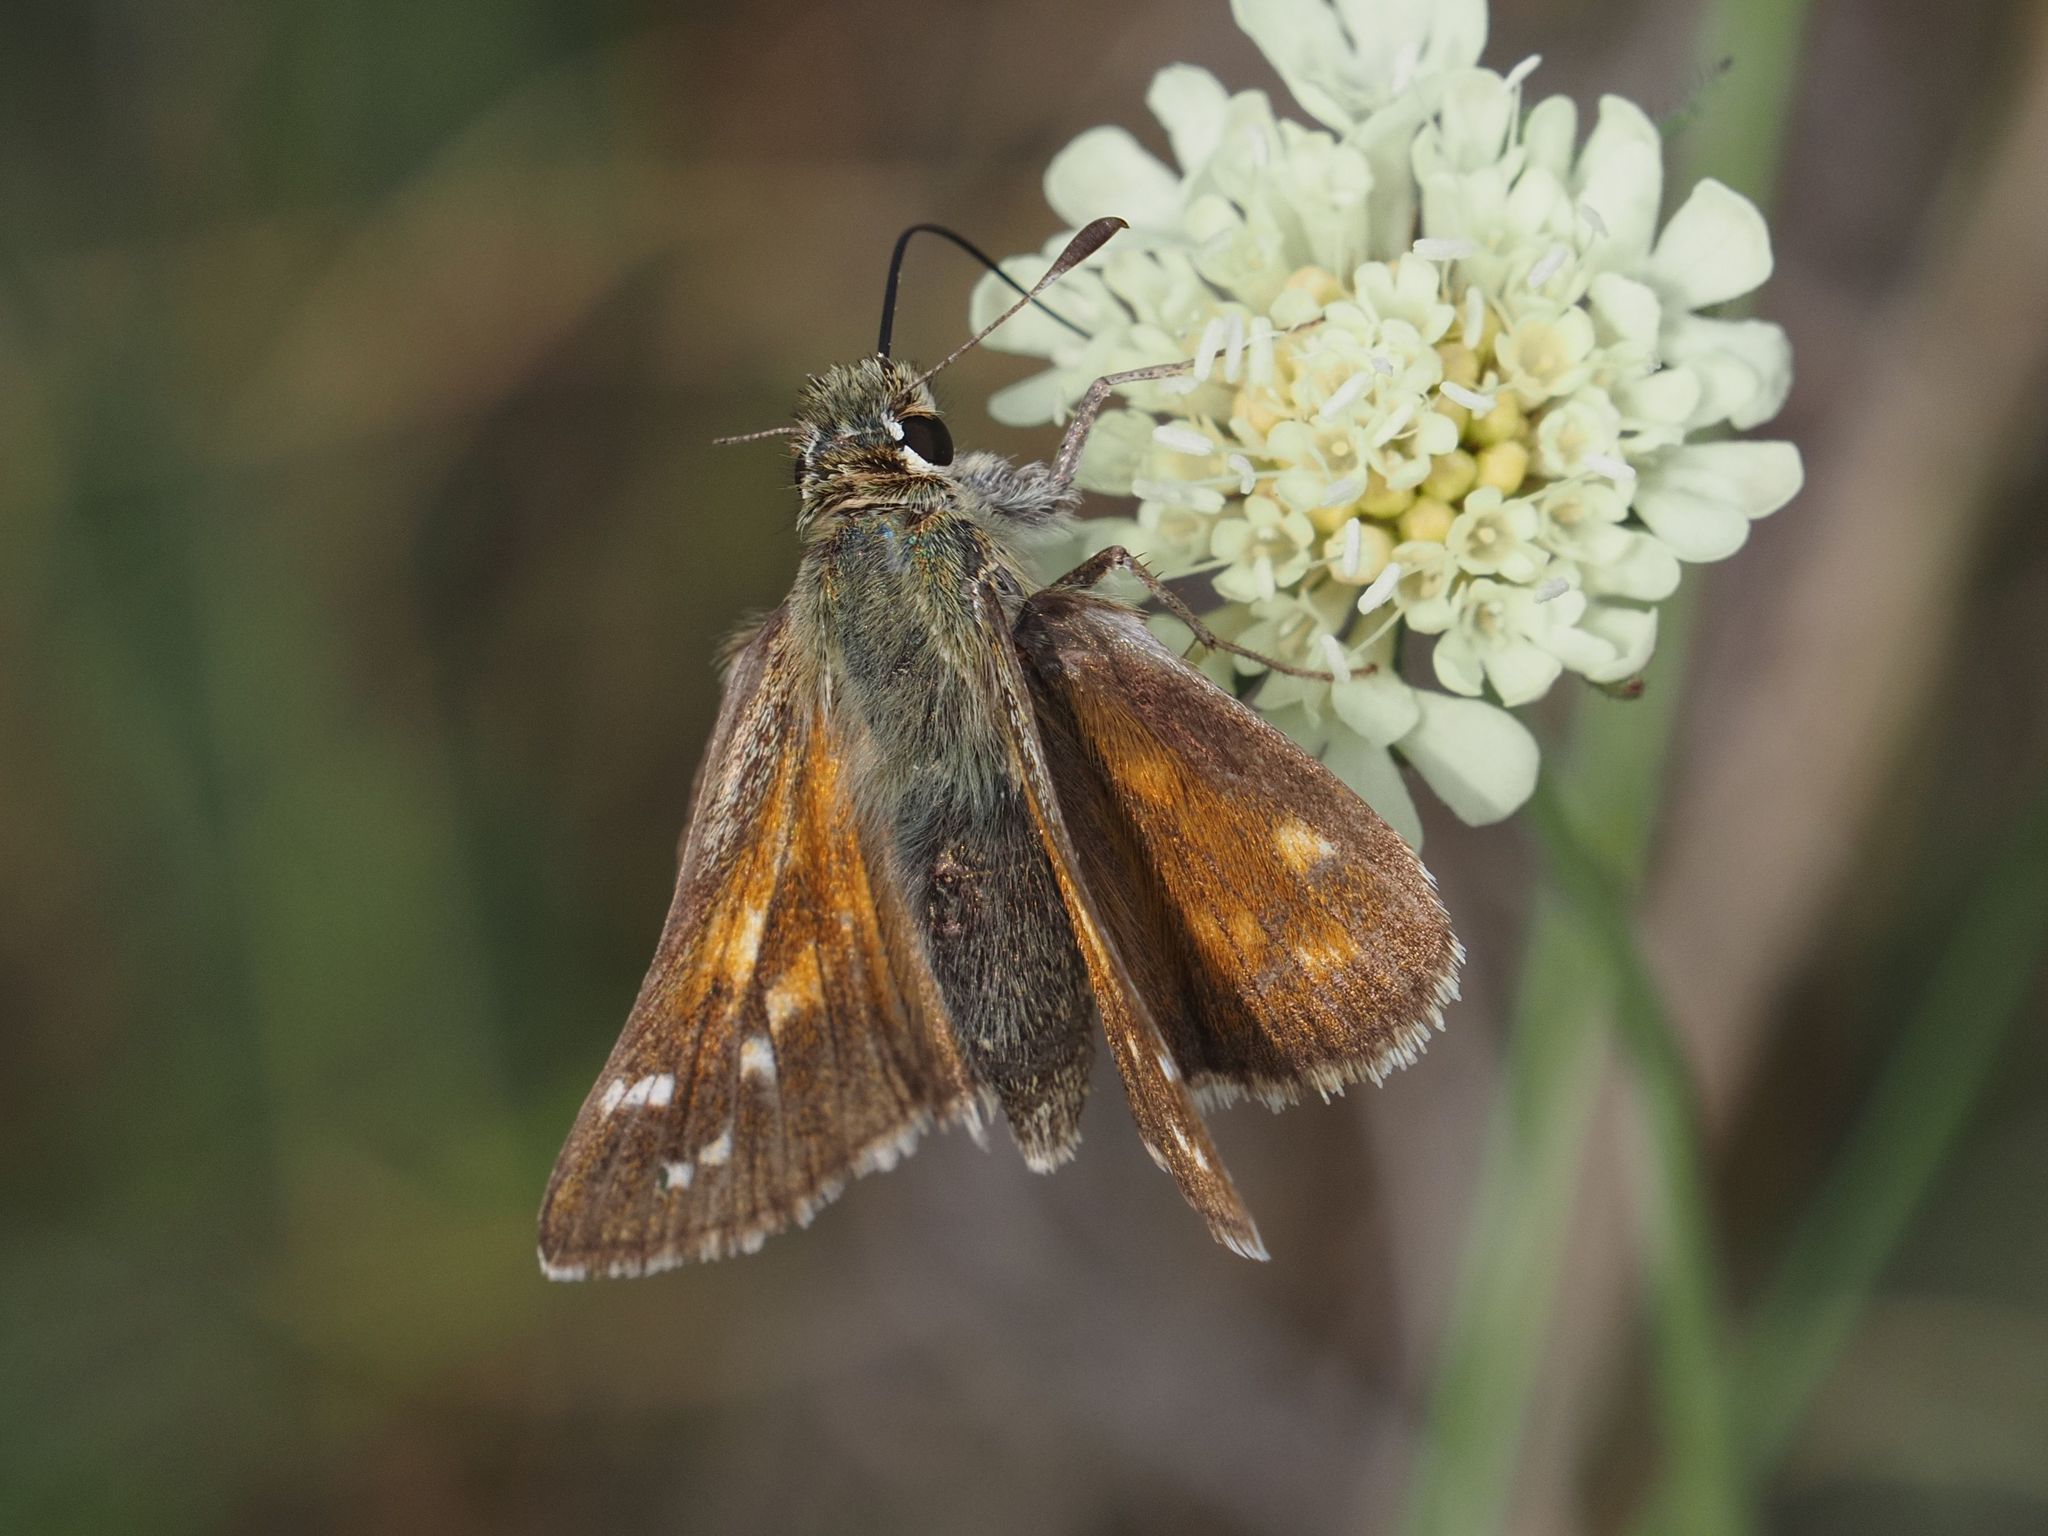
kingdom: Animalia
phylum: Arthropoda
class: Insecta
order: Lepidoptera
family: Hesperiidae
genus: Hesperia
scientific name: Hesperia comma
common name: Common branded skipper
